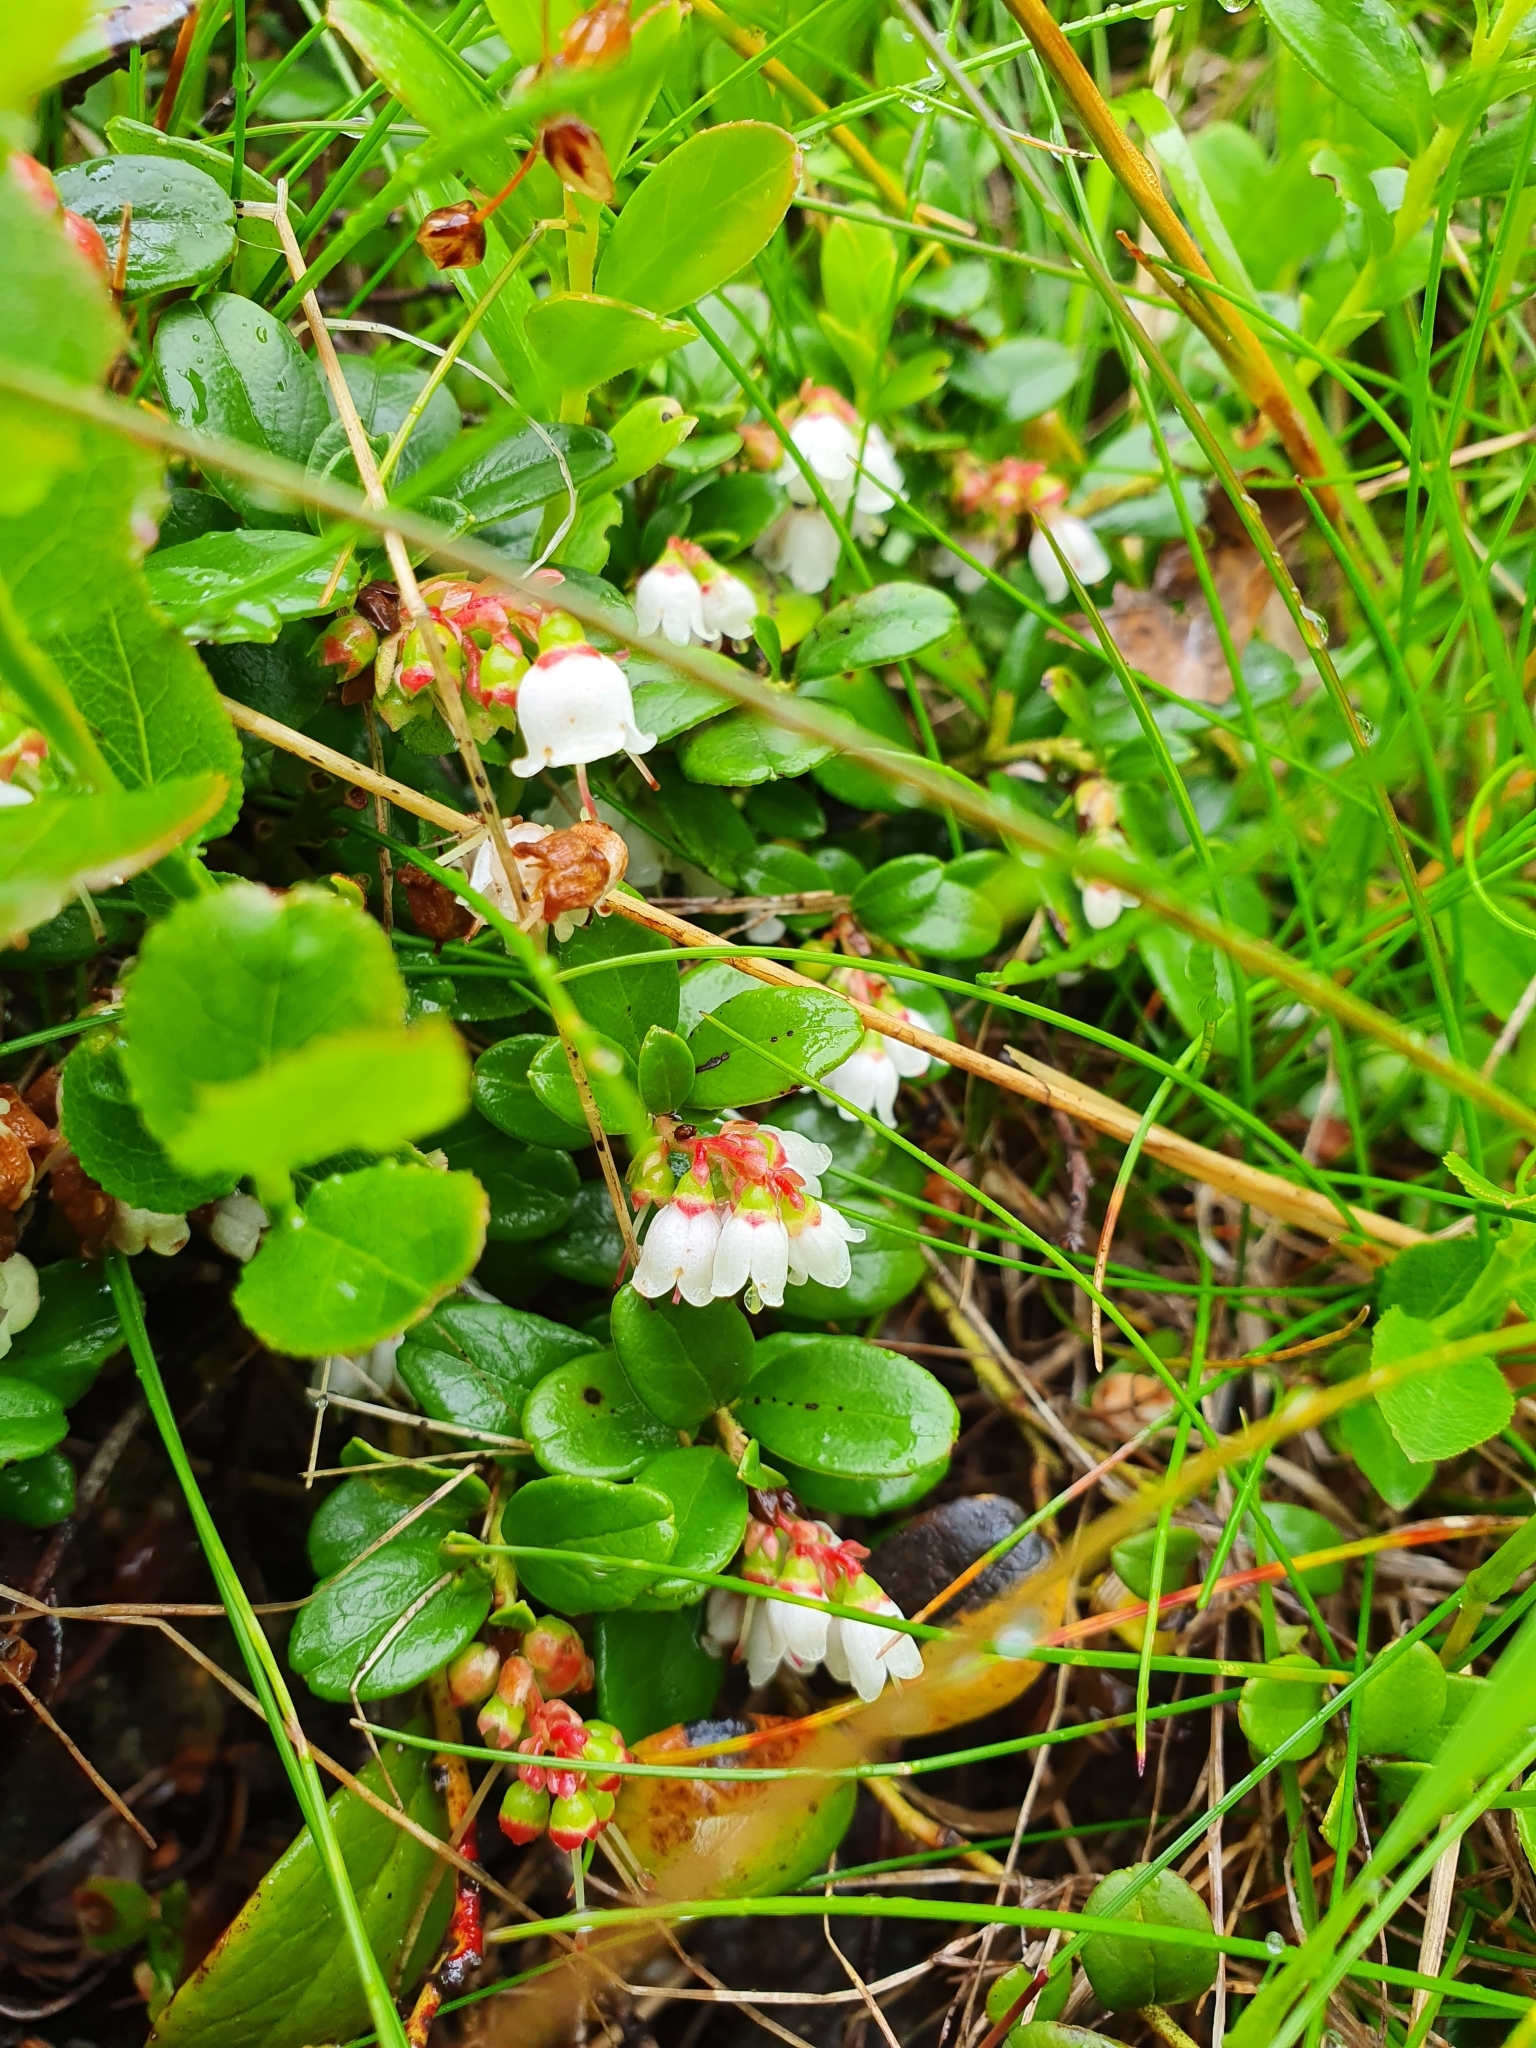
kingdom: Plantae
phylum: Tracheophyta
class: Magnoliopsida
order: Ericales
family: Ericaceae
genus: Vaccinium
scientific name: Vaccinium vitis-idaea
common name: Cowberry
